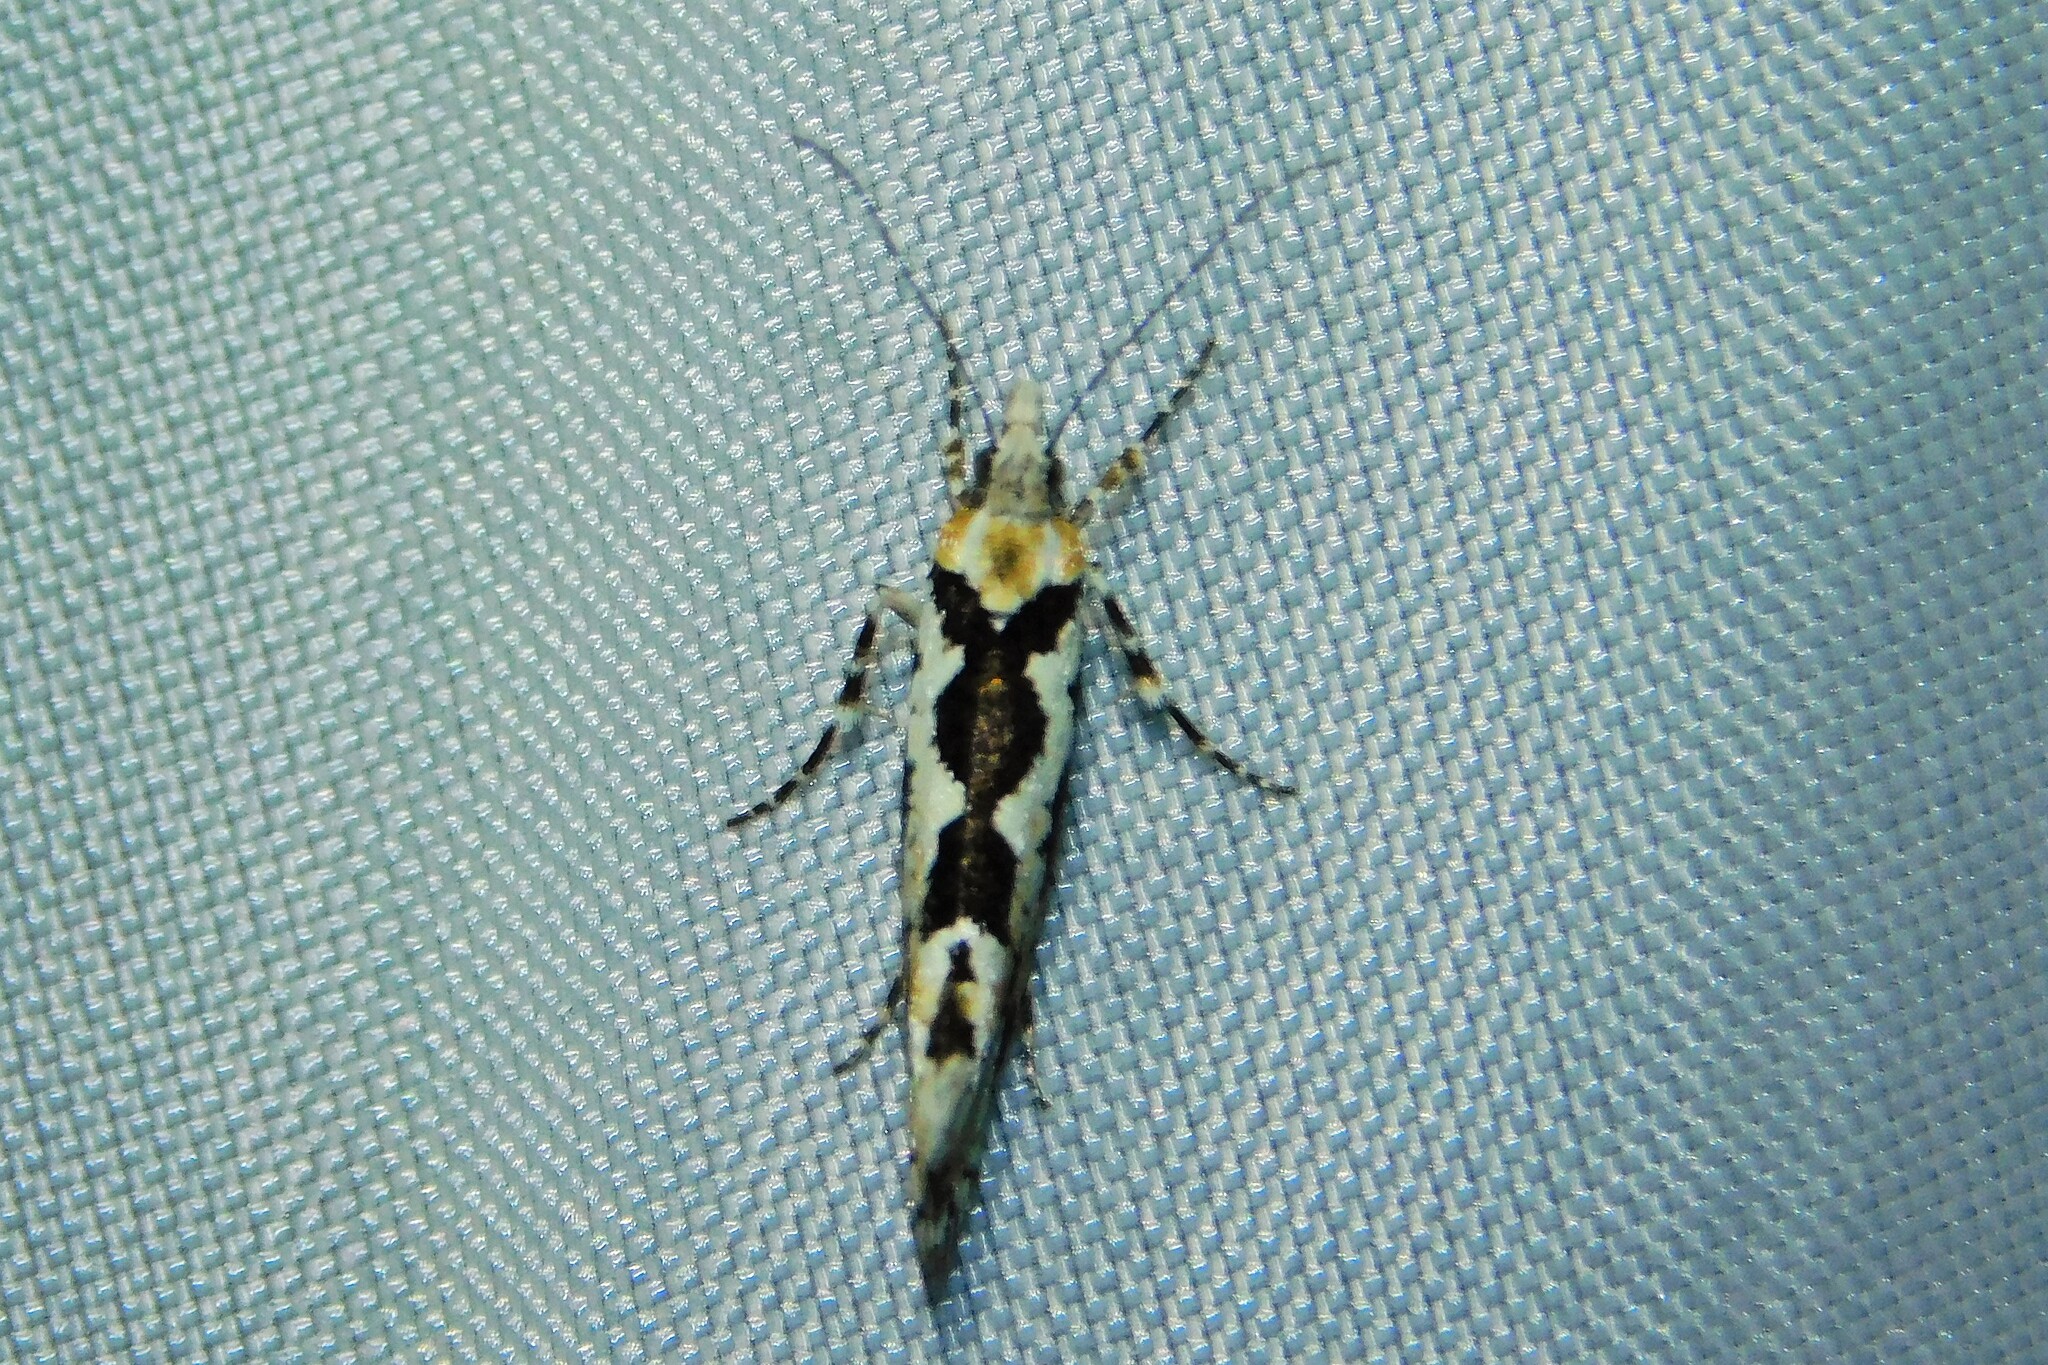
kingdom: Animalia
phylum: Arthropoda
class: Insecta
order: Lepidoptera
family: Plutellidae
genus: Ypsolophus
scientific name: Ypsolophus sequella
